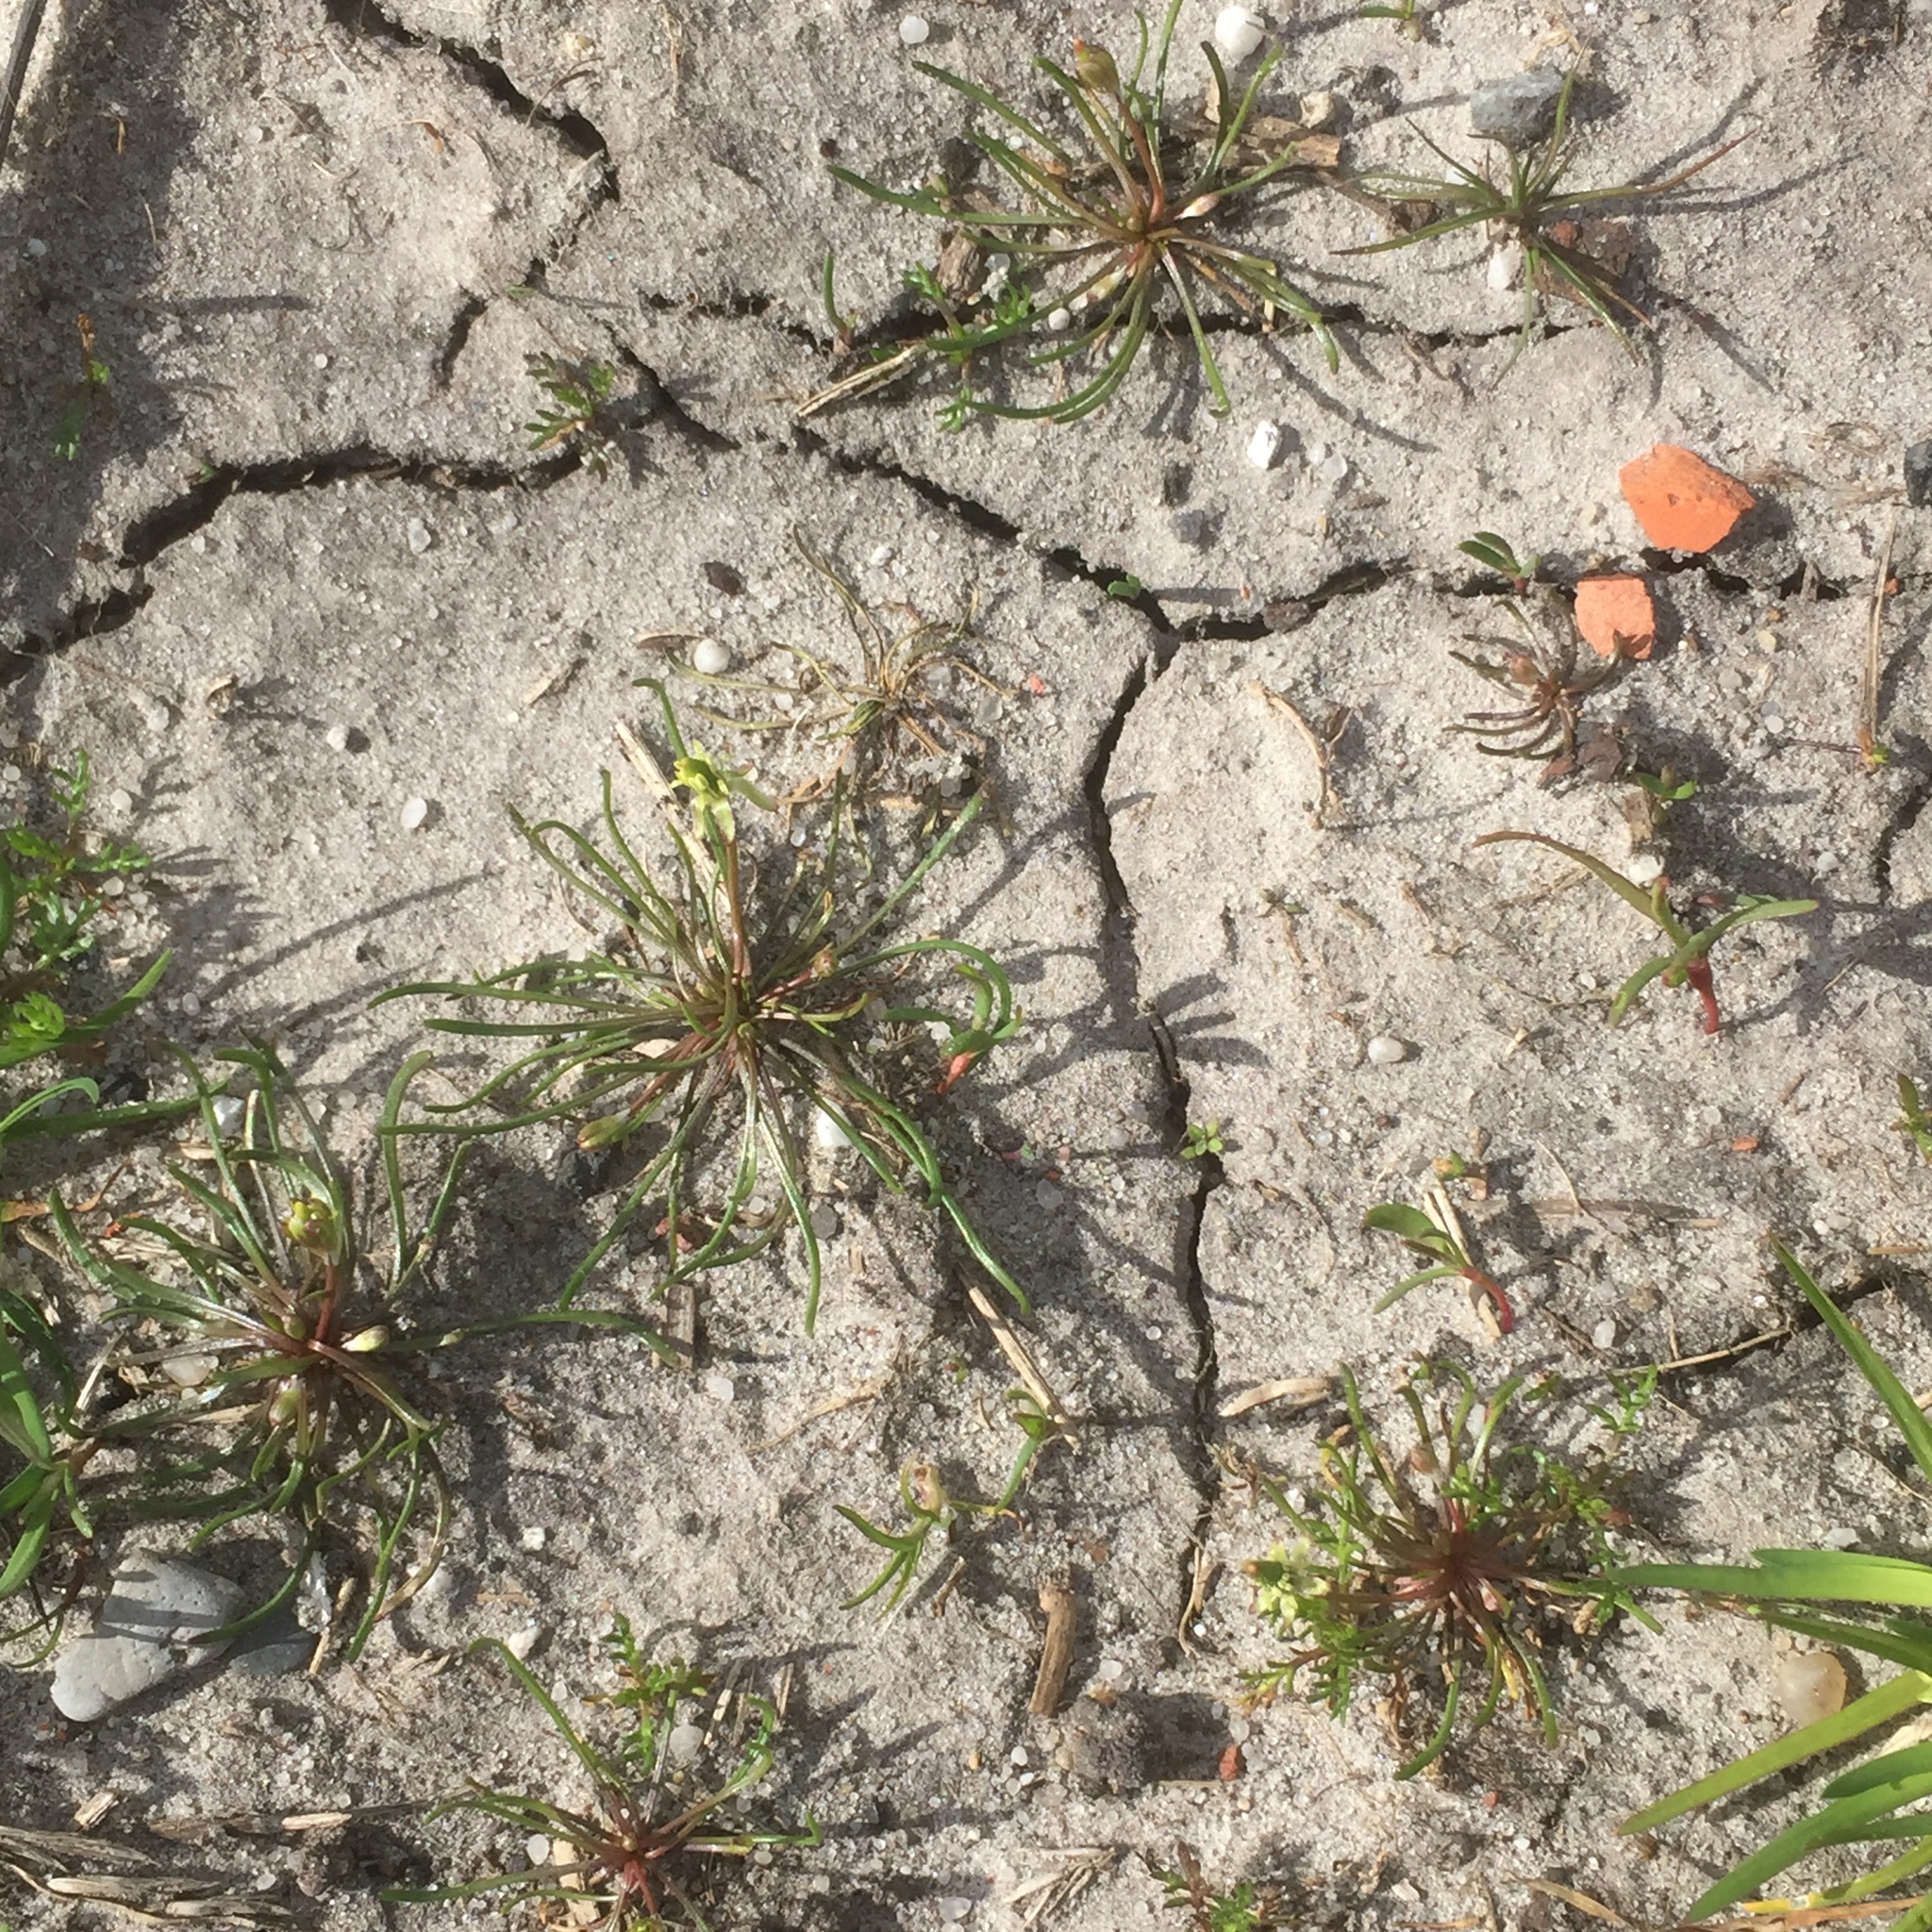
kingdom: Plantae
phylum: Tracheophyta
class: Magnoliopsida
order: Ranunculales
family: Ranunculaceae
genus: Myosurus
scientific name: Myosurus minimus
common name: Mousetail
